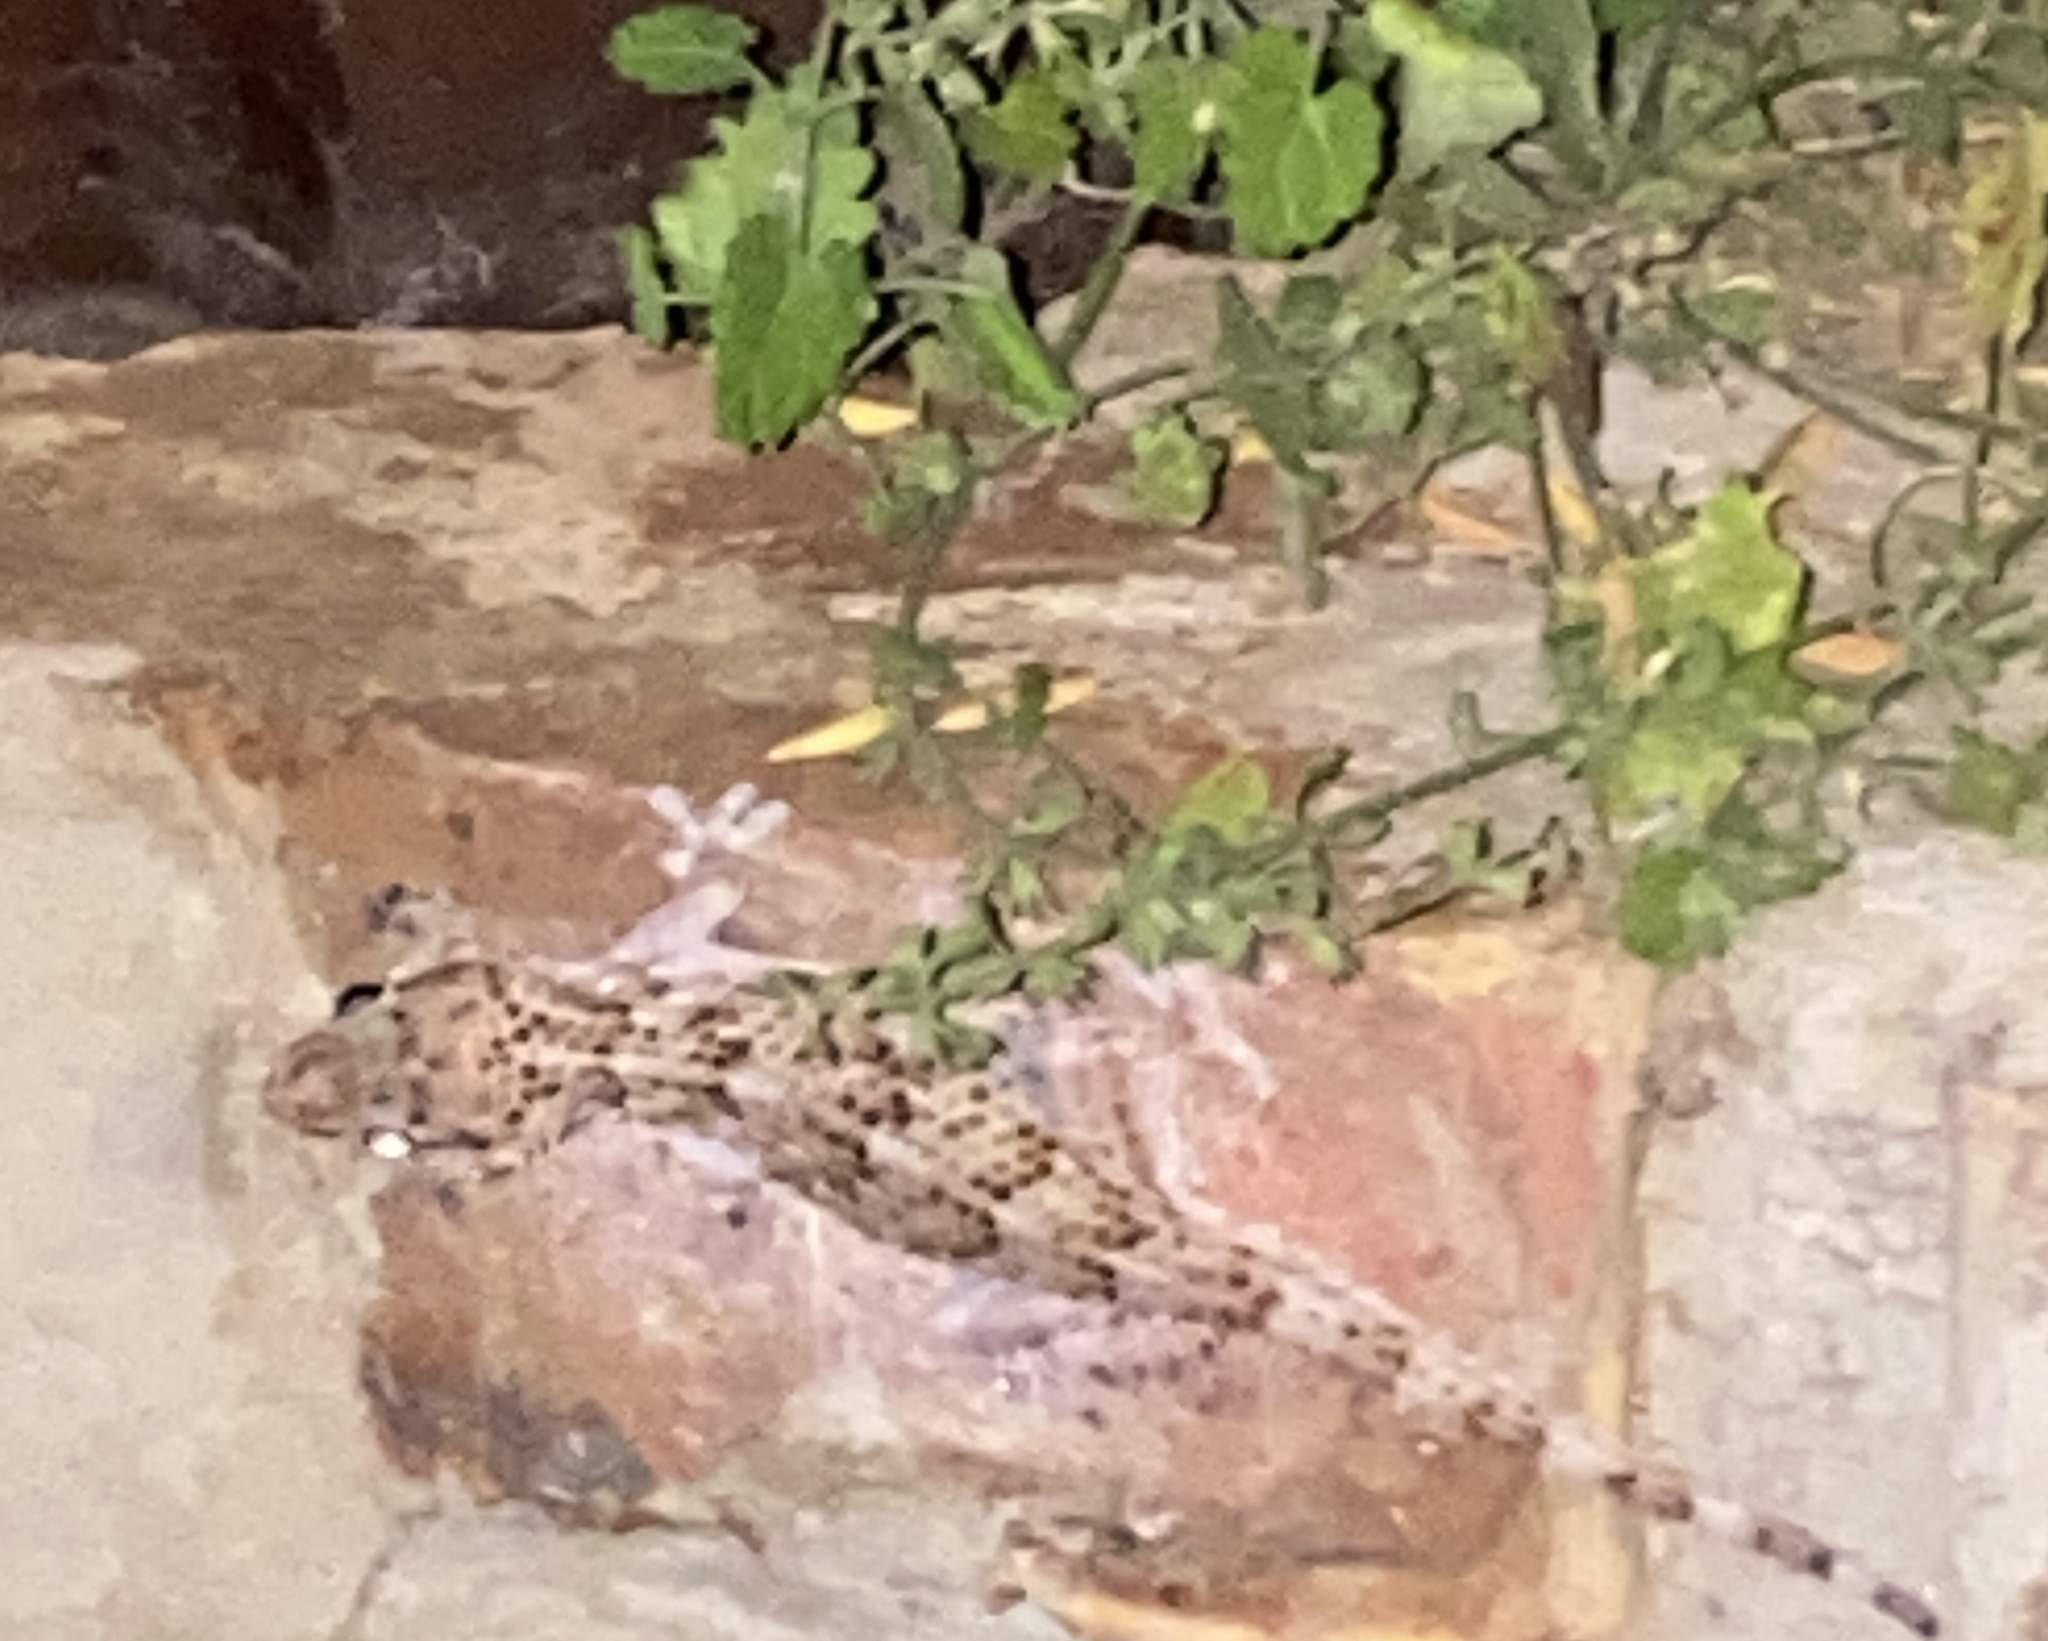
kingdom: Animalia
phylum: Chordata
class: Squamata
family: Gekkonidae
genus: Chondrodactylus
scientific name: Chondrodactylus bibronii
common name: Bibron's gecko
